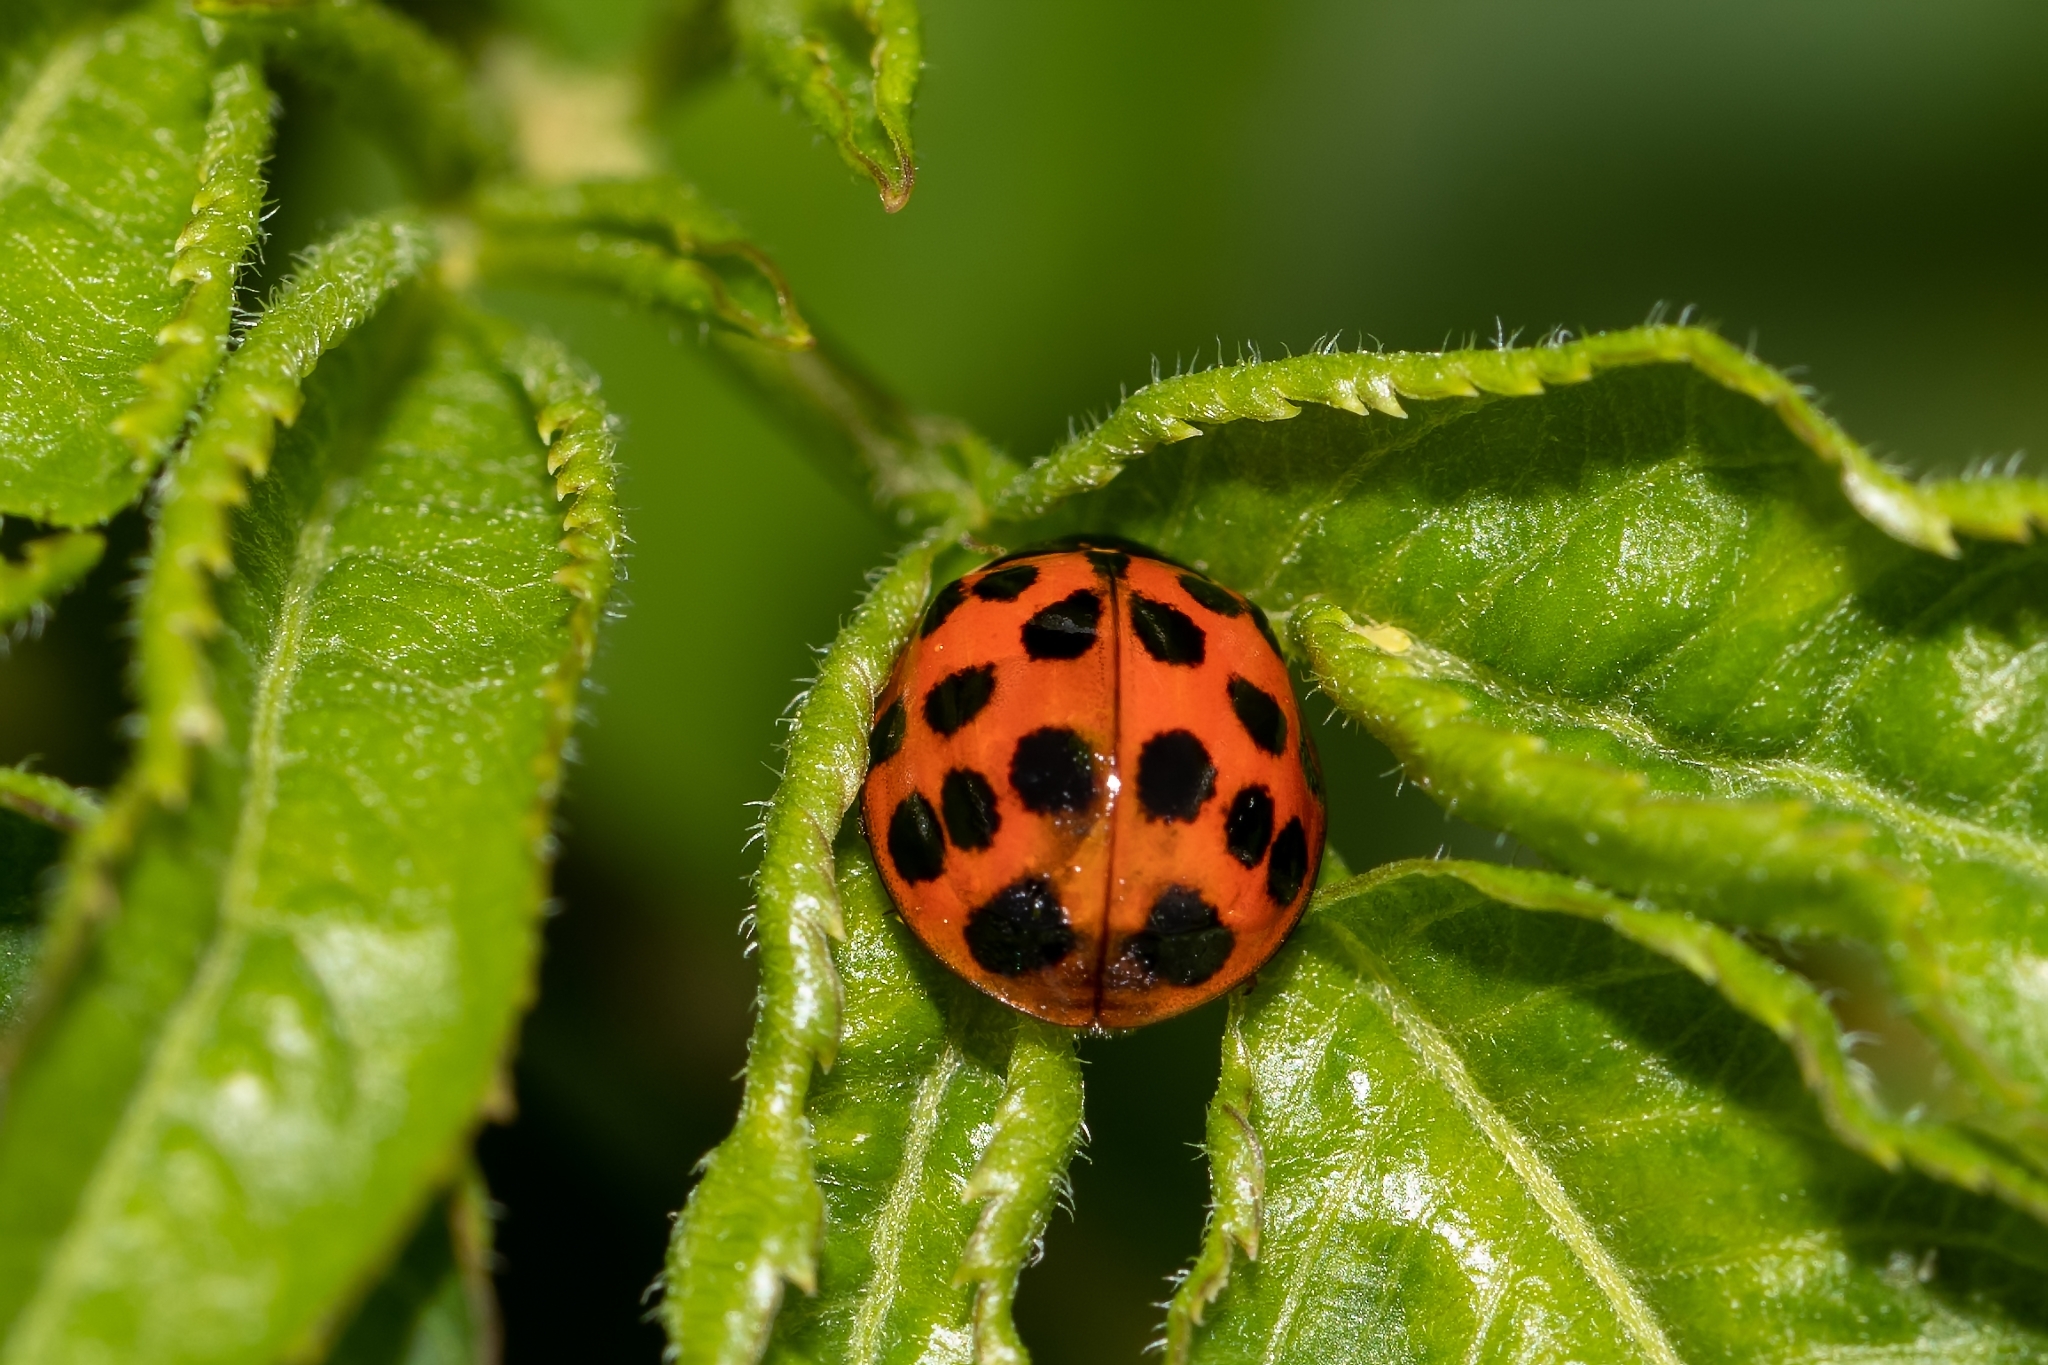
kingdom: Animalia
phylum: Arthropoda
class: Insecta
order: Coleoptera
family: Coccinellidae
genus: Harmonia
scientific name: Harmonia axyridis
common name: Harlequin ladybird
